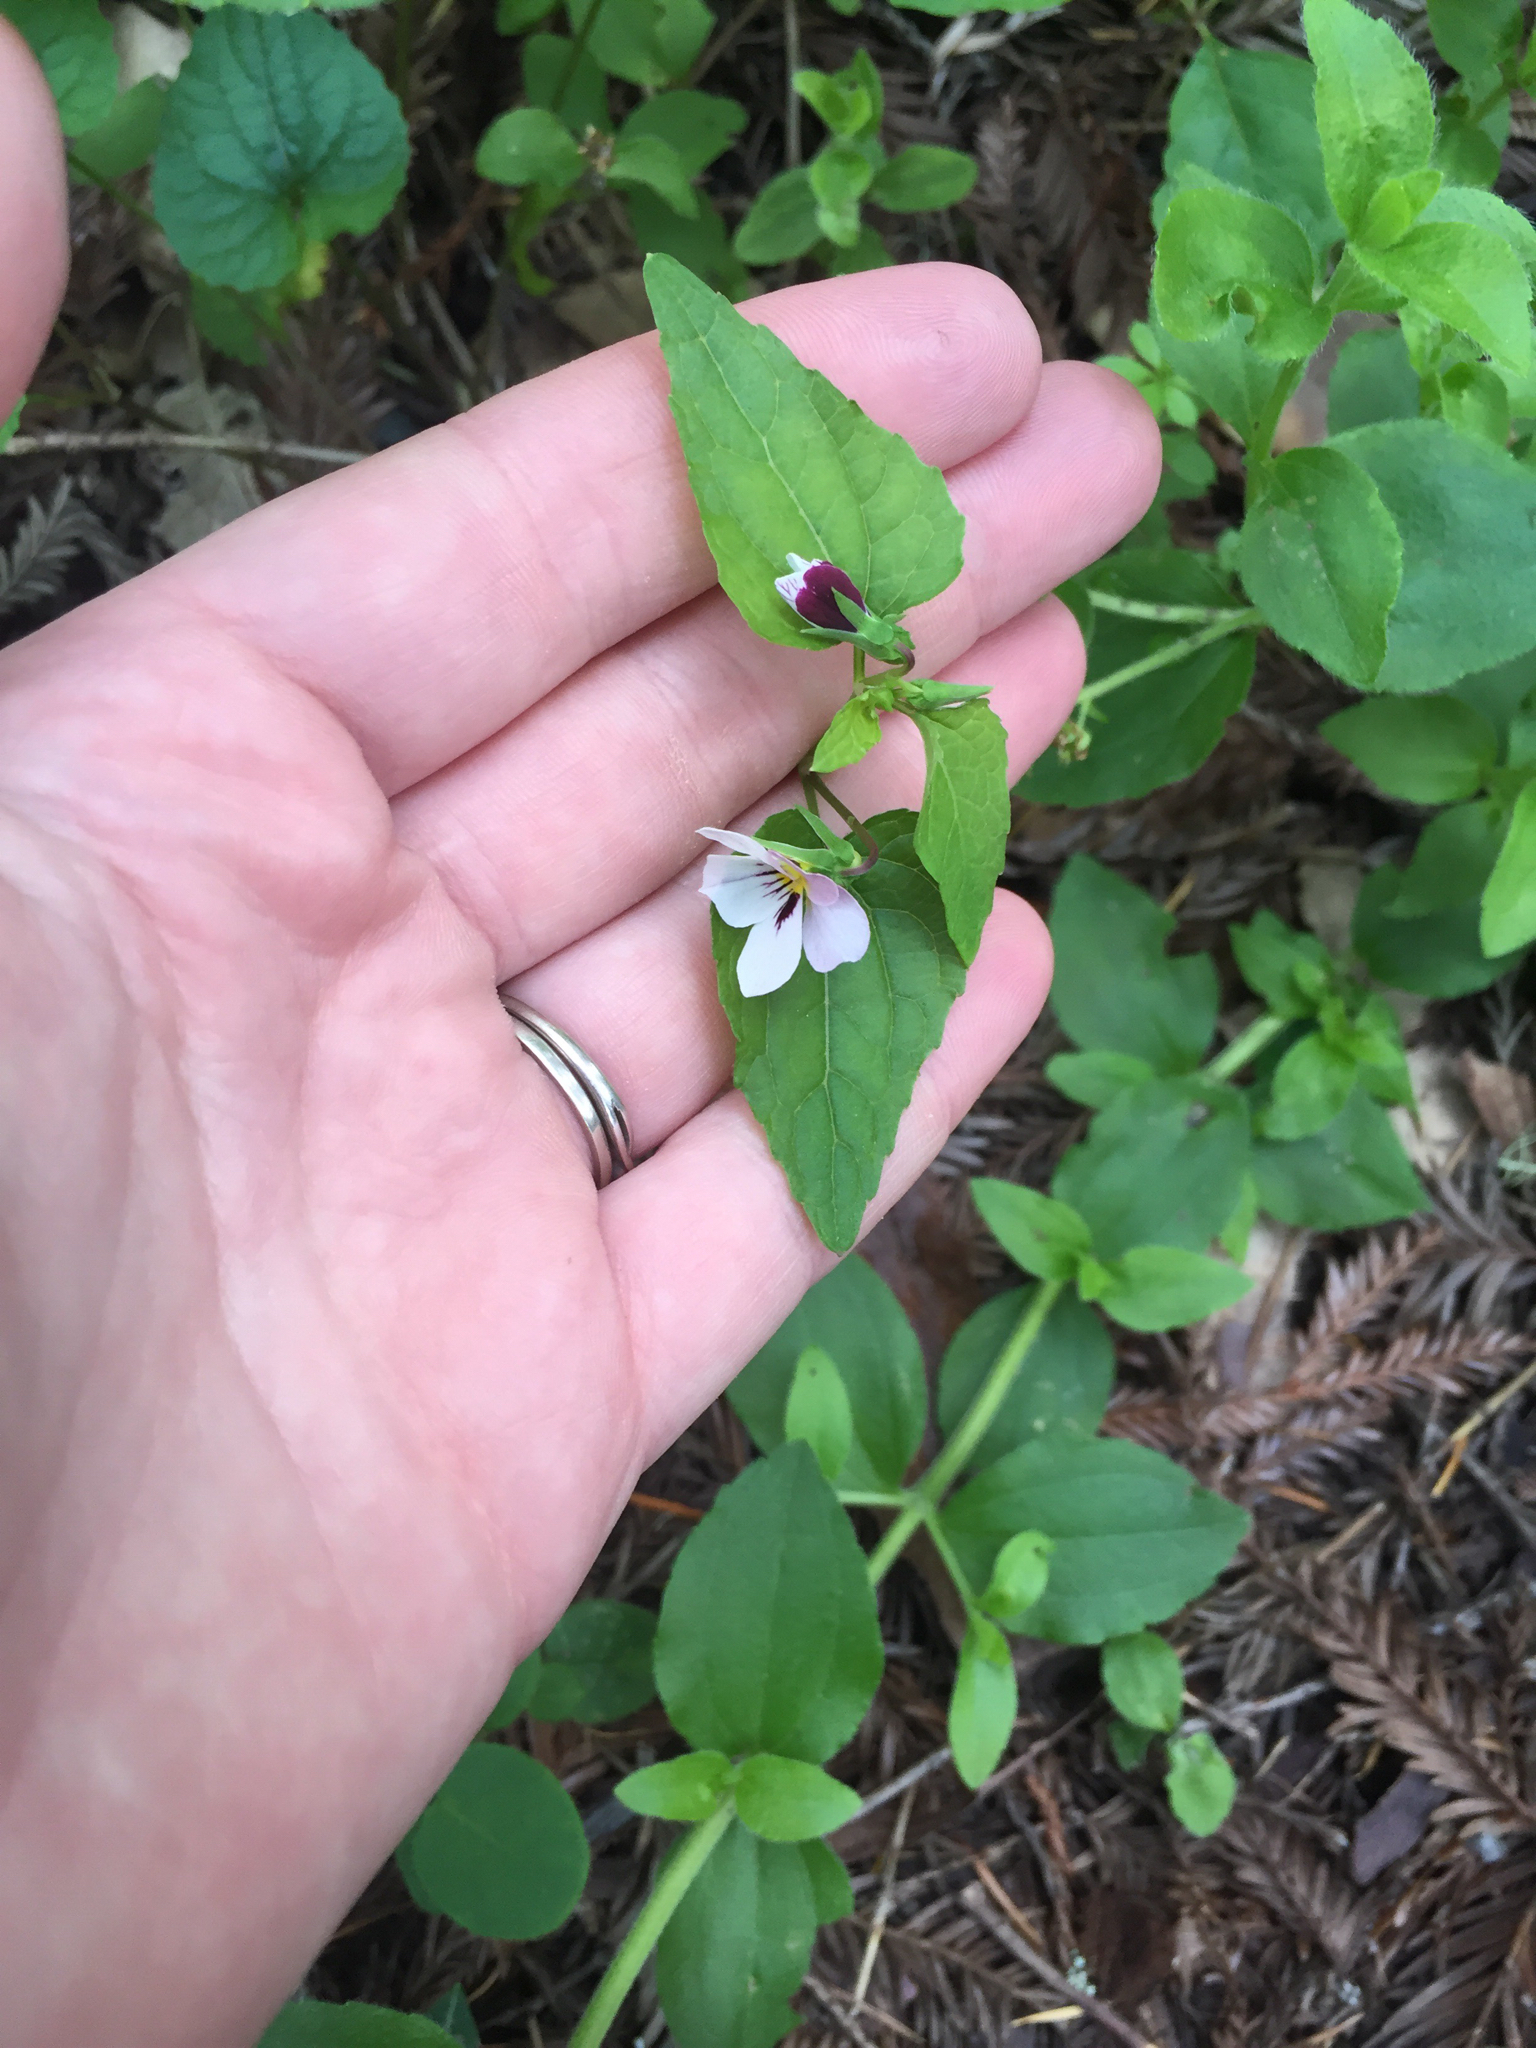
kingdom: Plantae
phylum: Tracheophyta
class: Magnoliopsida
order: Malpighiales
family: Violaceae
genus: Viola
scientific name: Viola ocellata
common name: Western heart's ease
